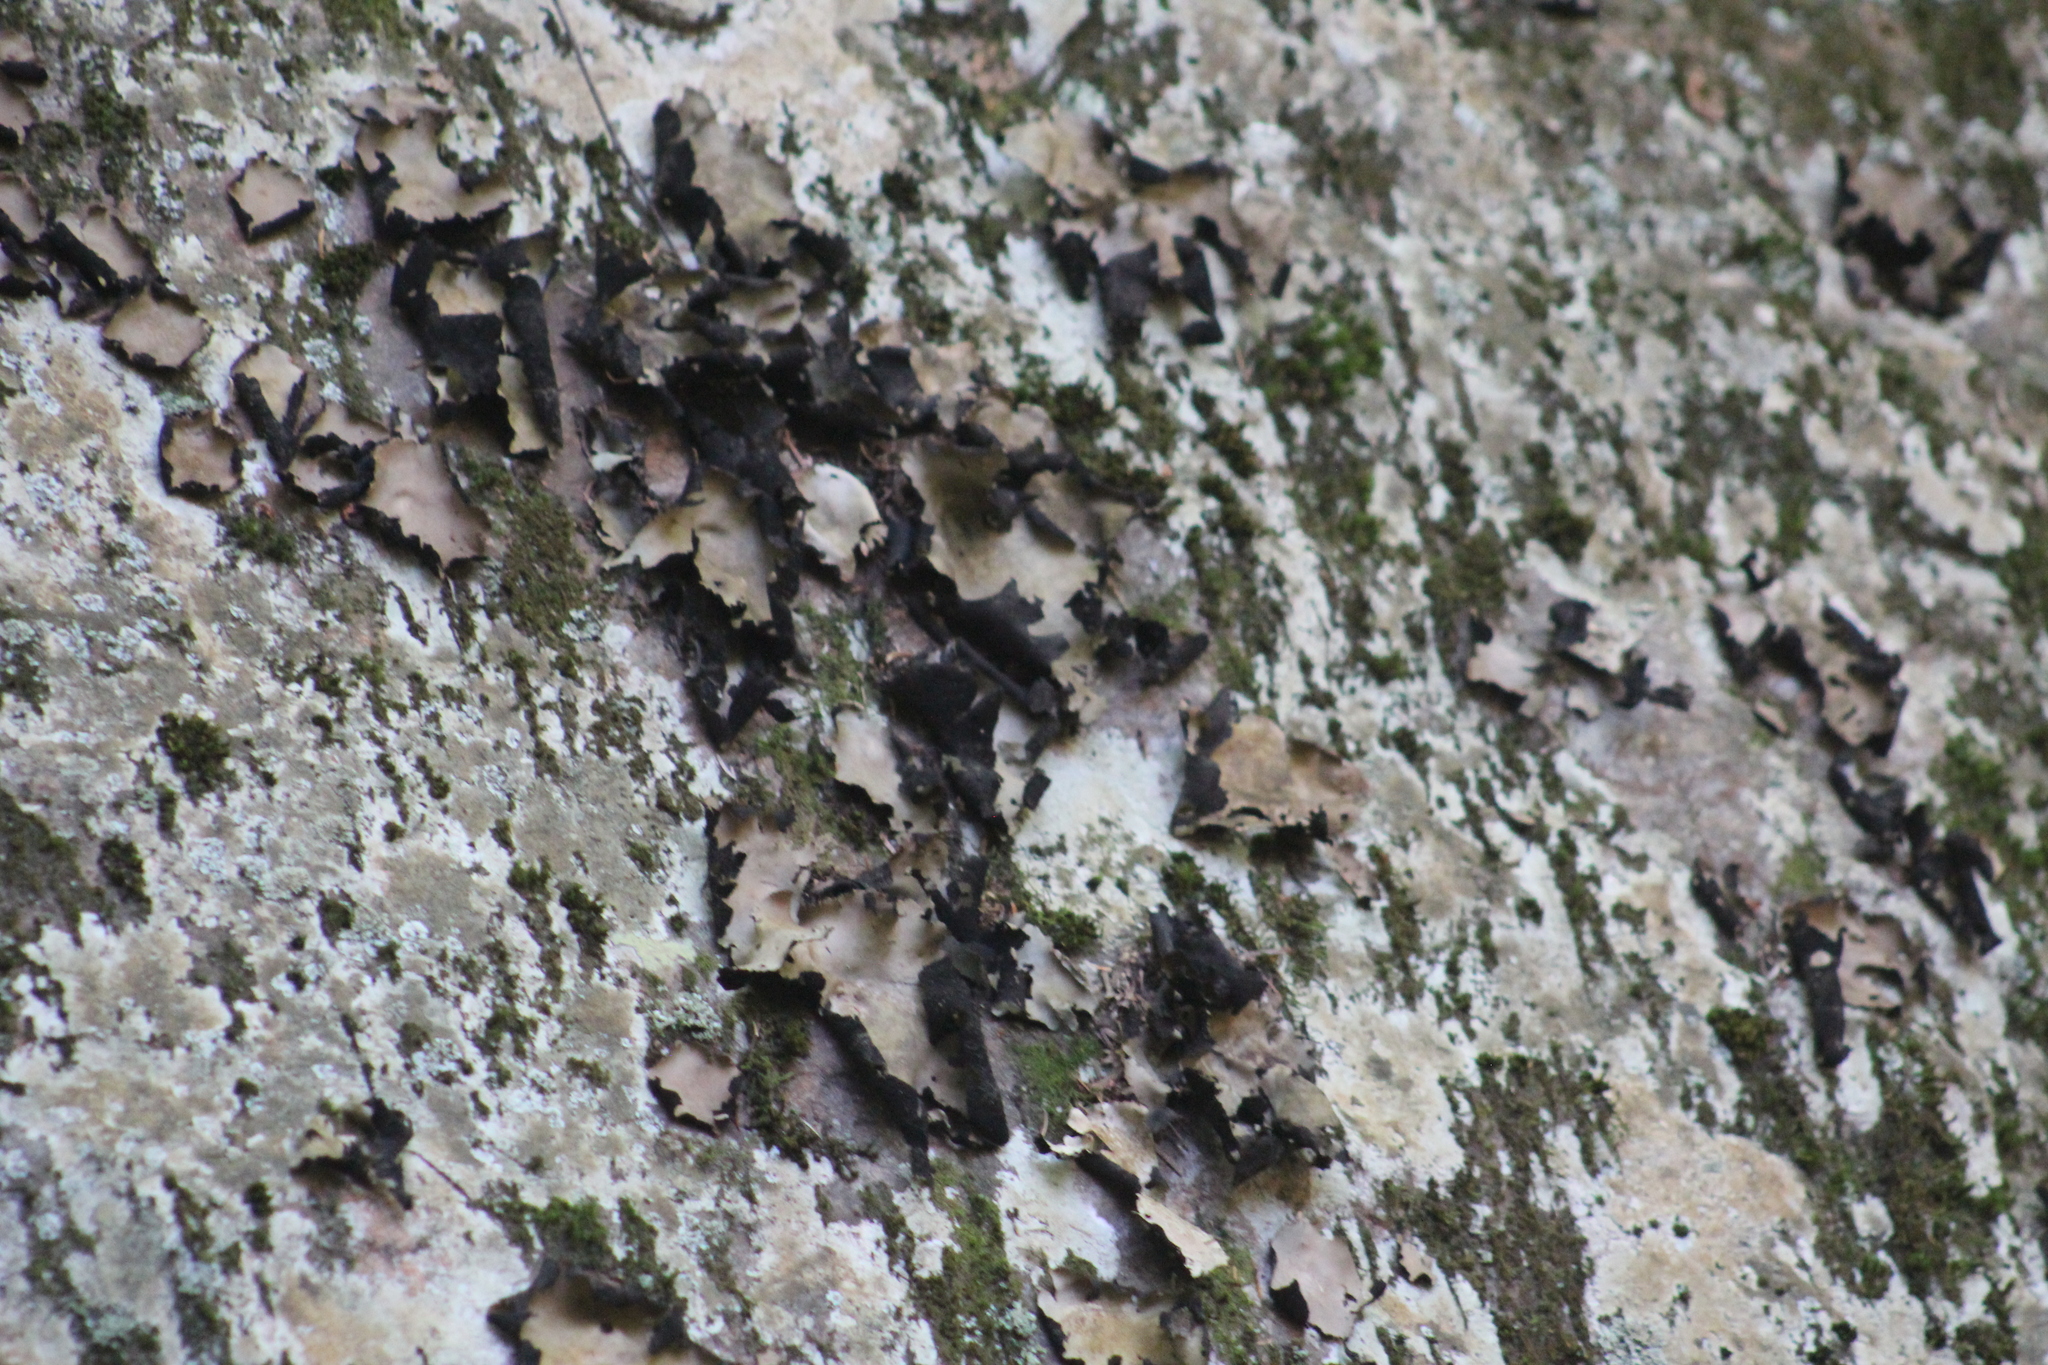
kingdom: Fungi
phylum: Ascomycota
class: Lecanoromycetes
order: Umbilicariales
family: Umbilicariaceae
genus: Umbilicaria
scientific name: Umbilicaria mammulata
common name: Smooth rock tripe
